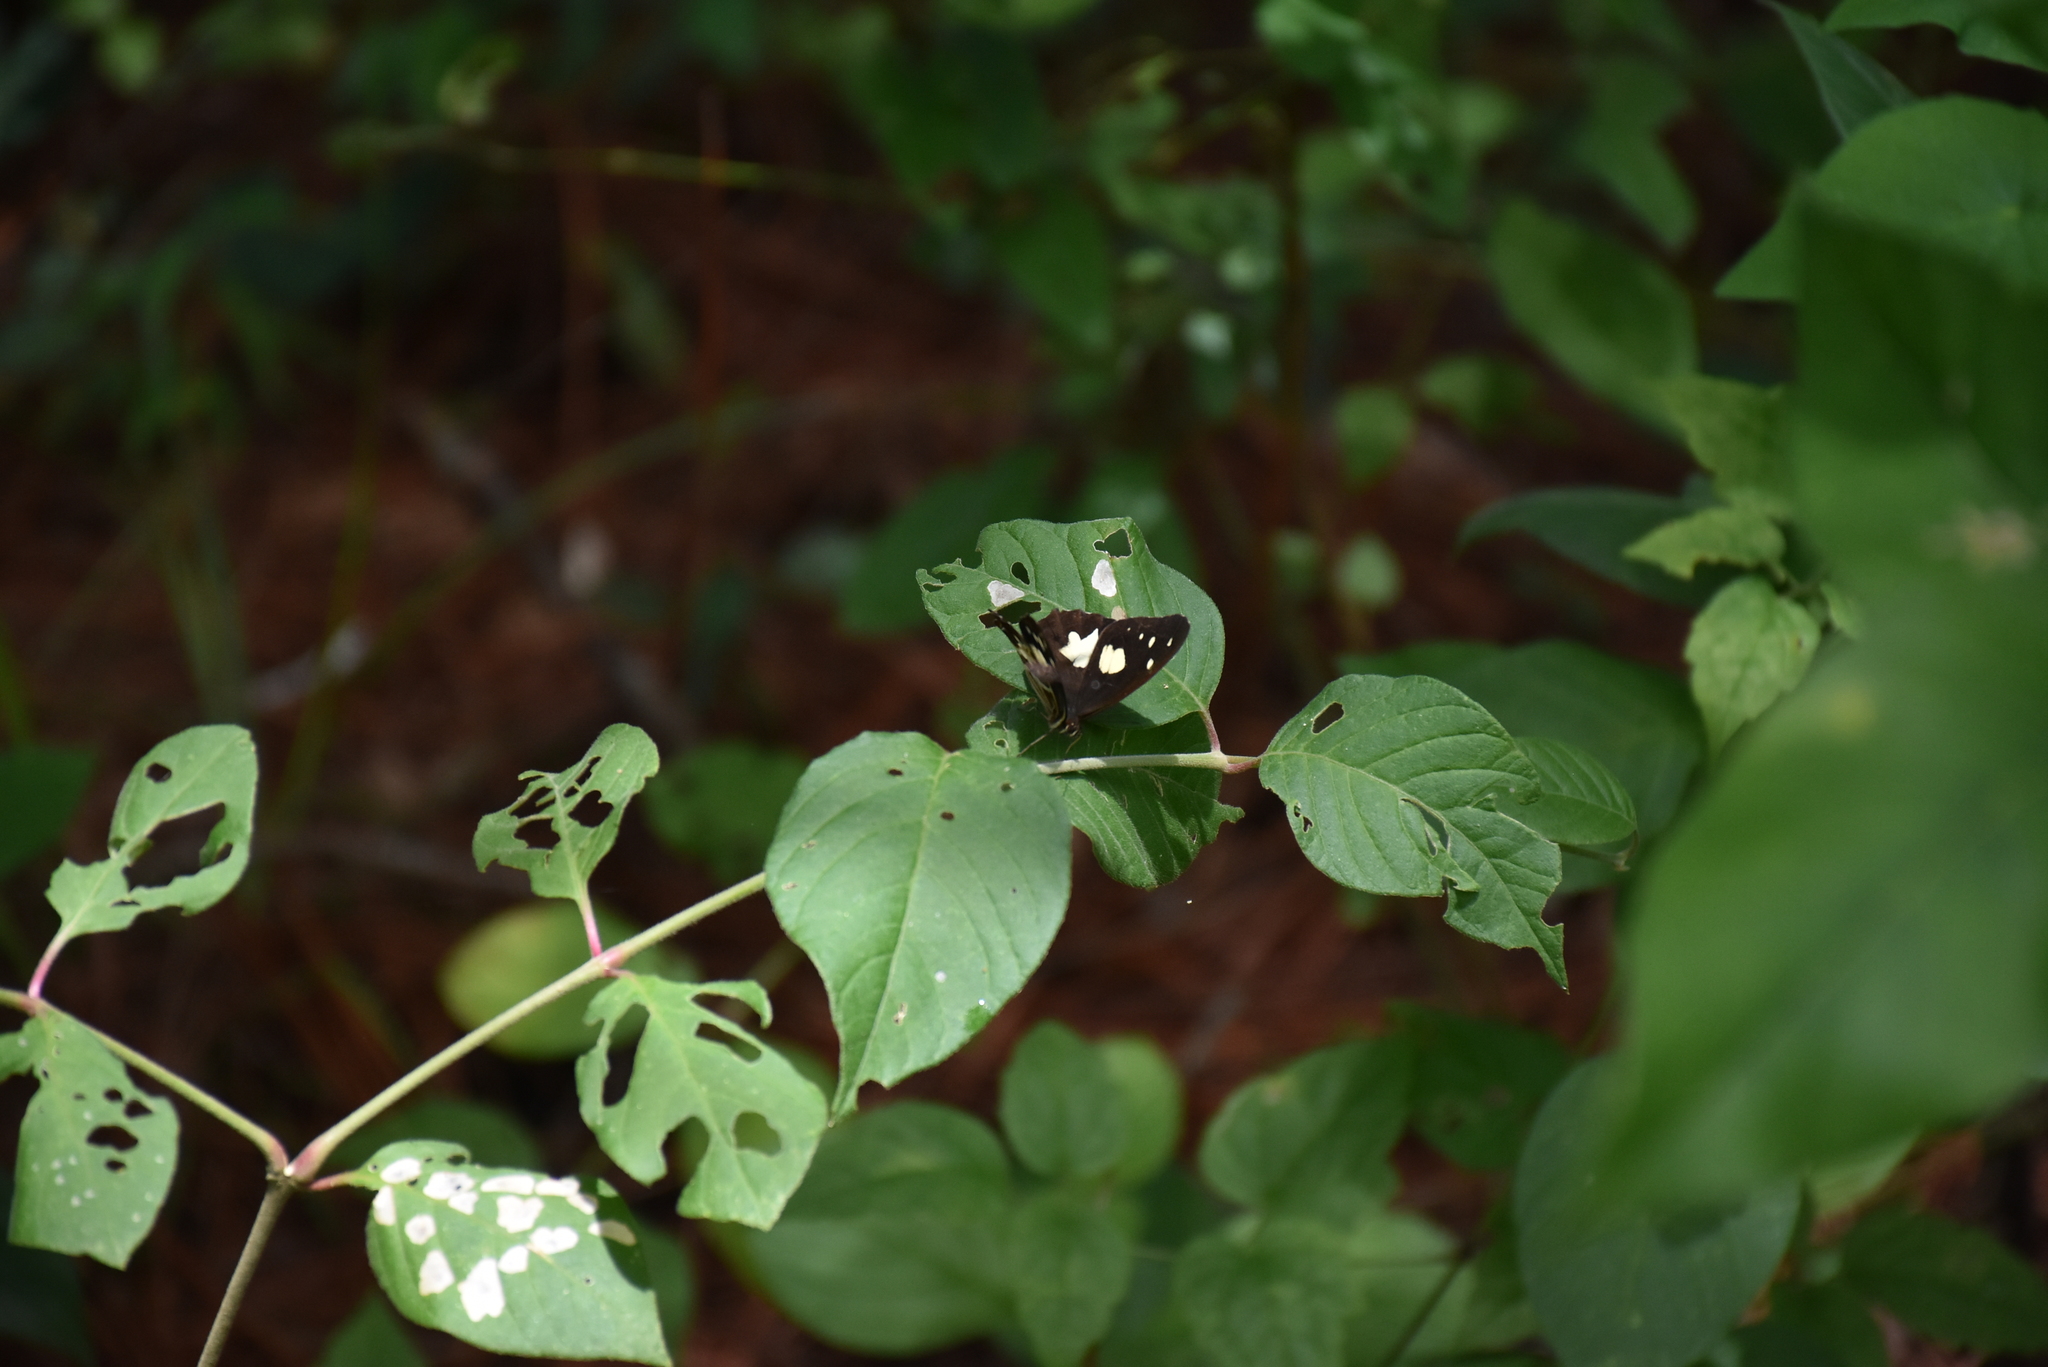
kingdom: Animalia
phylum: Arthropoda
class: Insecta
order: Lepidoptera
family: Nymphalidae
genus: Oxeoschistus
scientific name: Oxeoschistus tauropolis
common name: Starred oxeo
